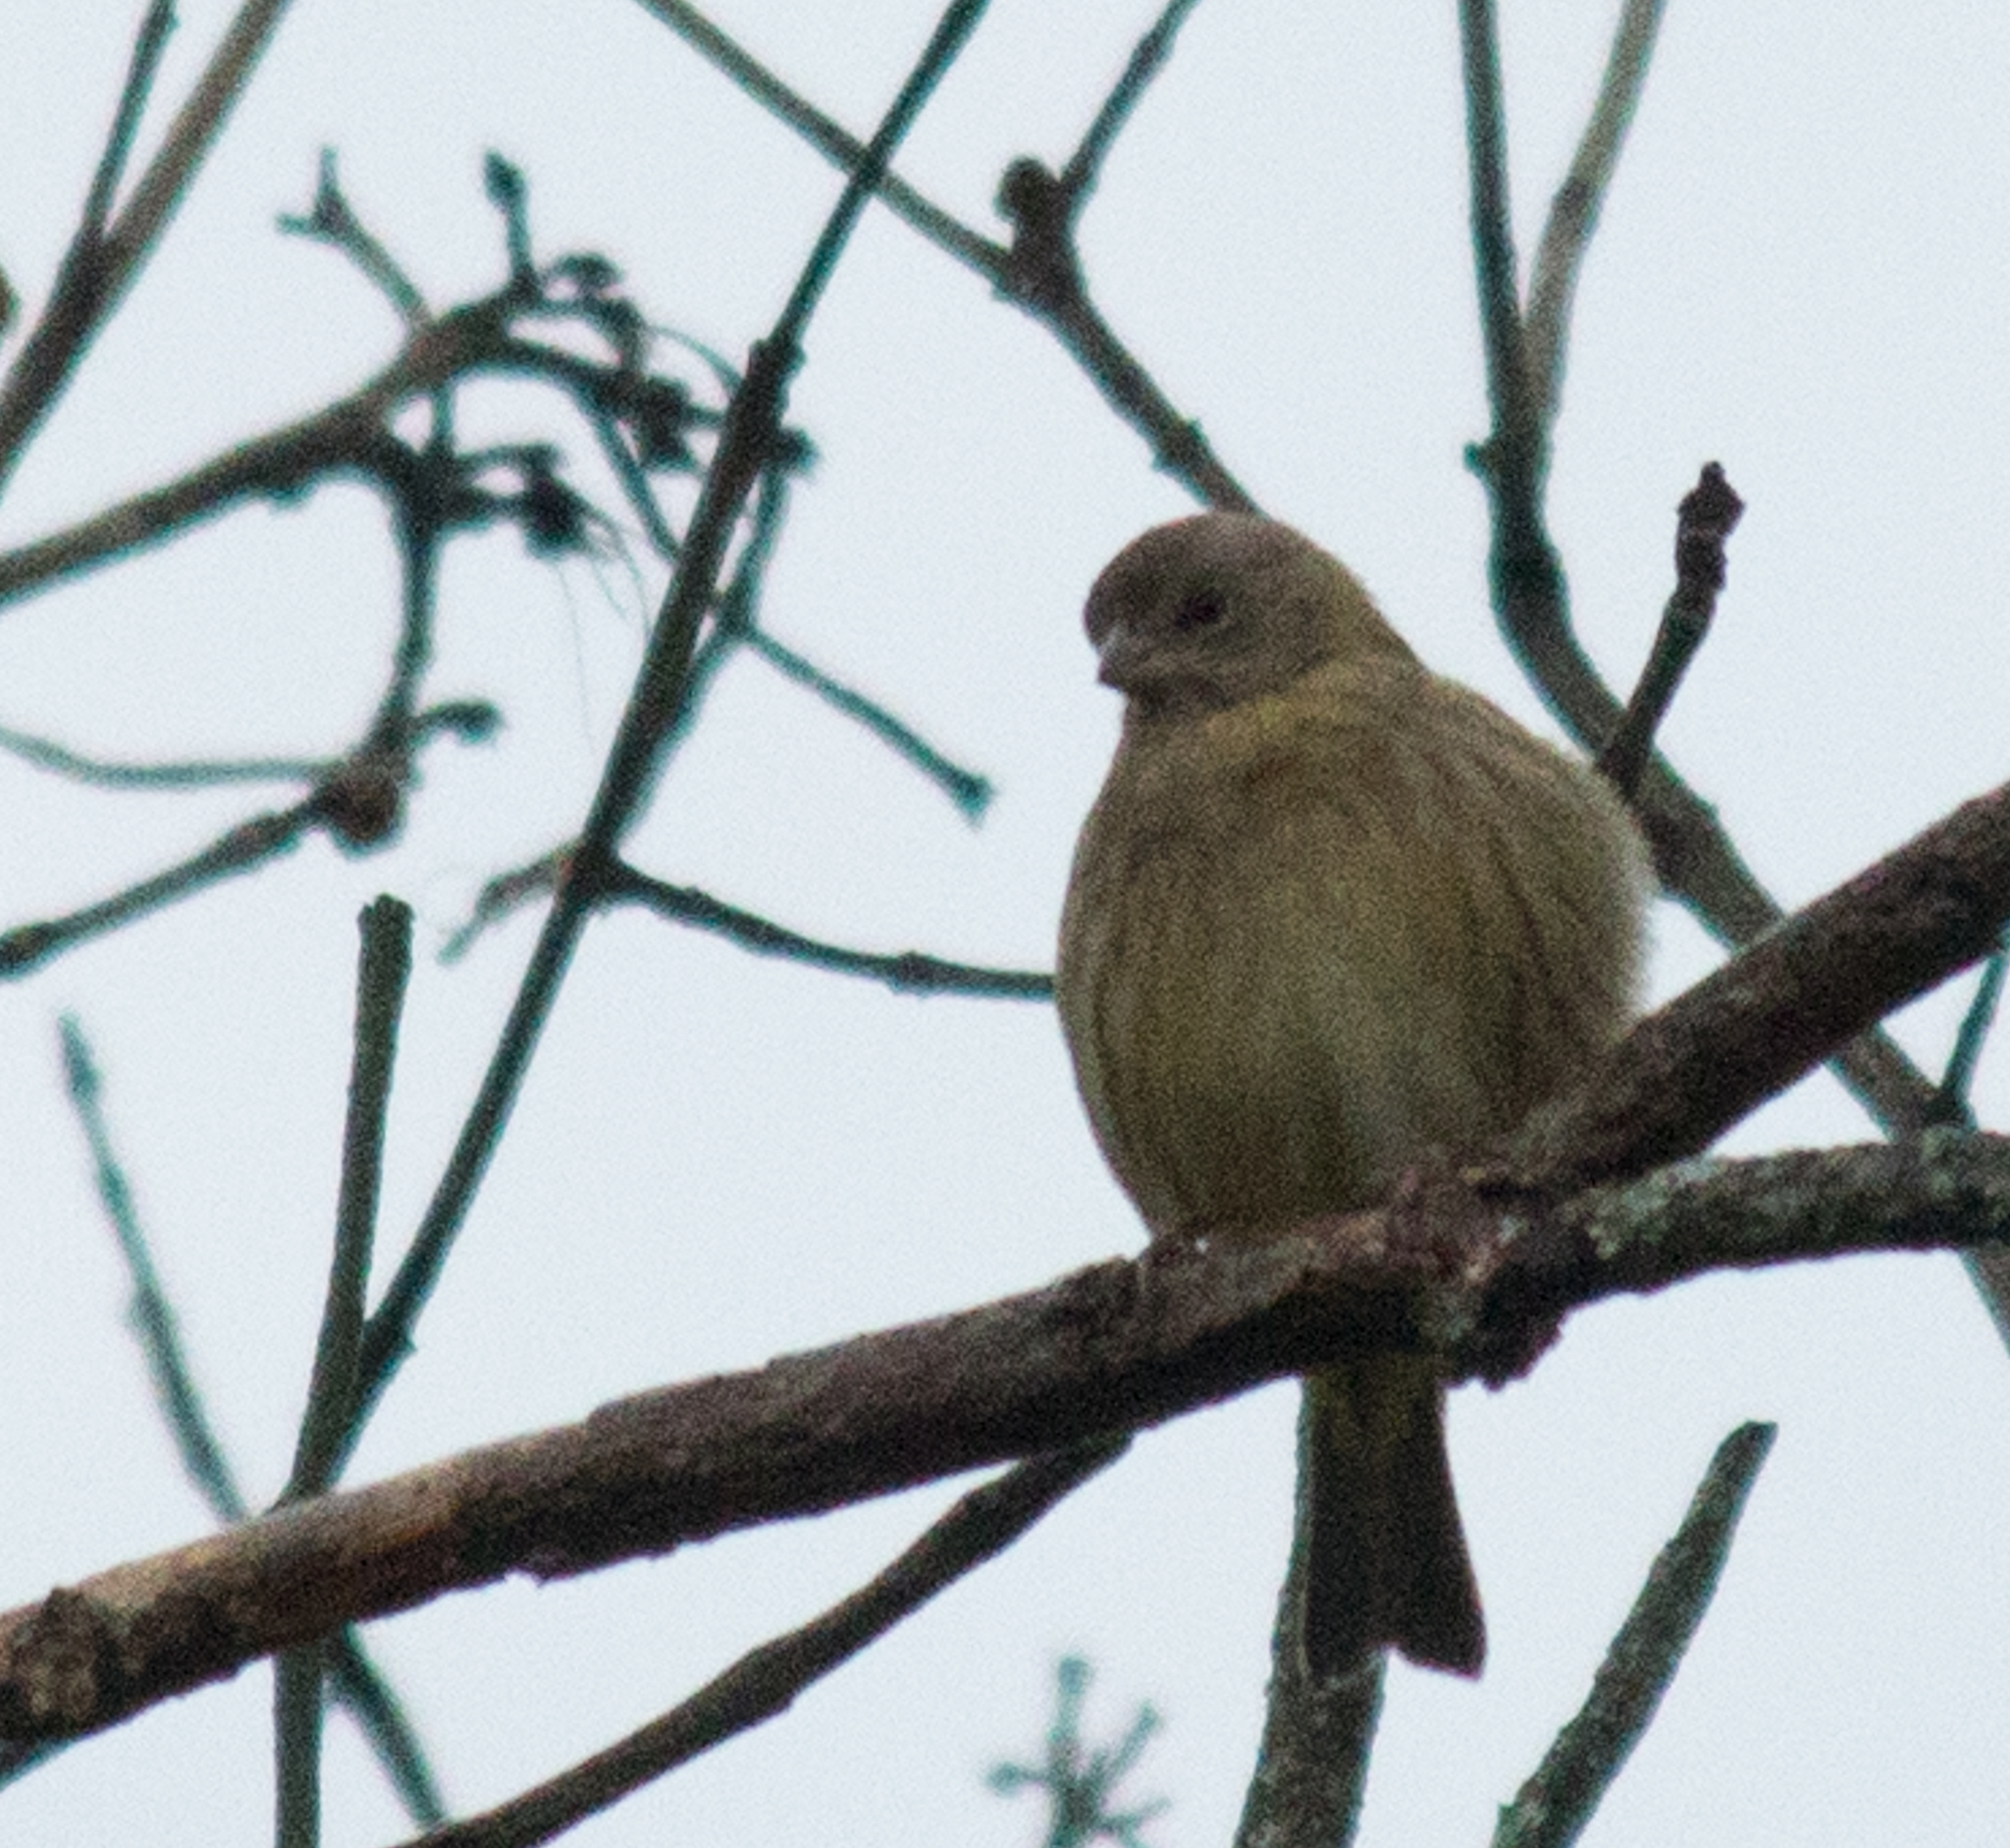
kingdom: Animalia
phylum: Chordata
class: Aves
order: Passeriformes
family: Thraupidae
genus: Sicalis
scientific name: Sicalis flaveola
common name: Saffron finch
